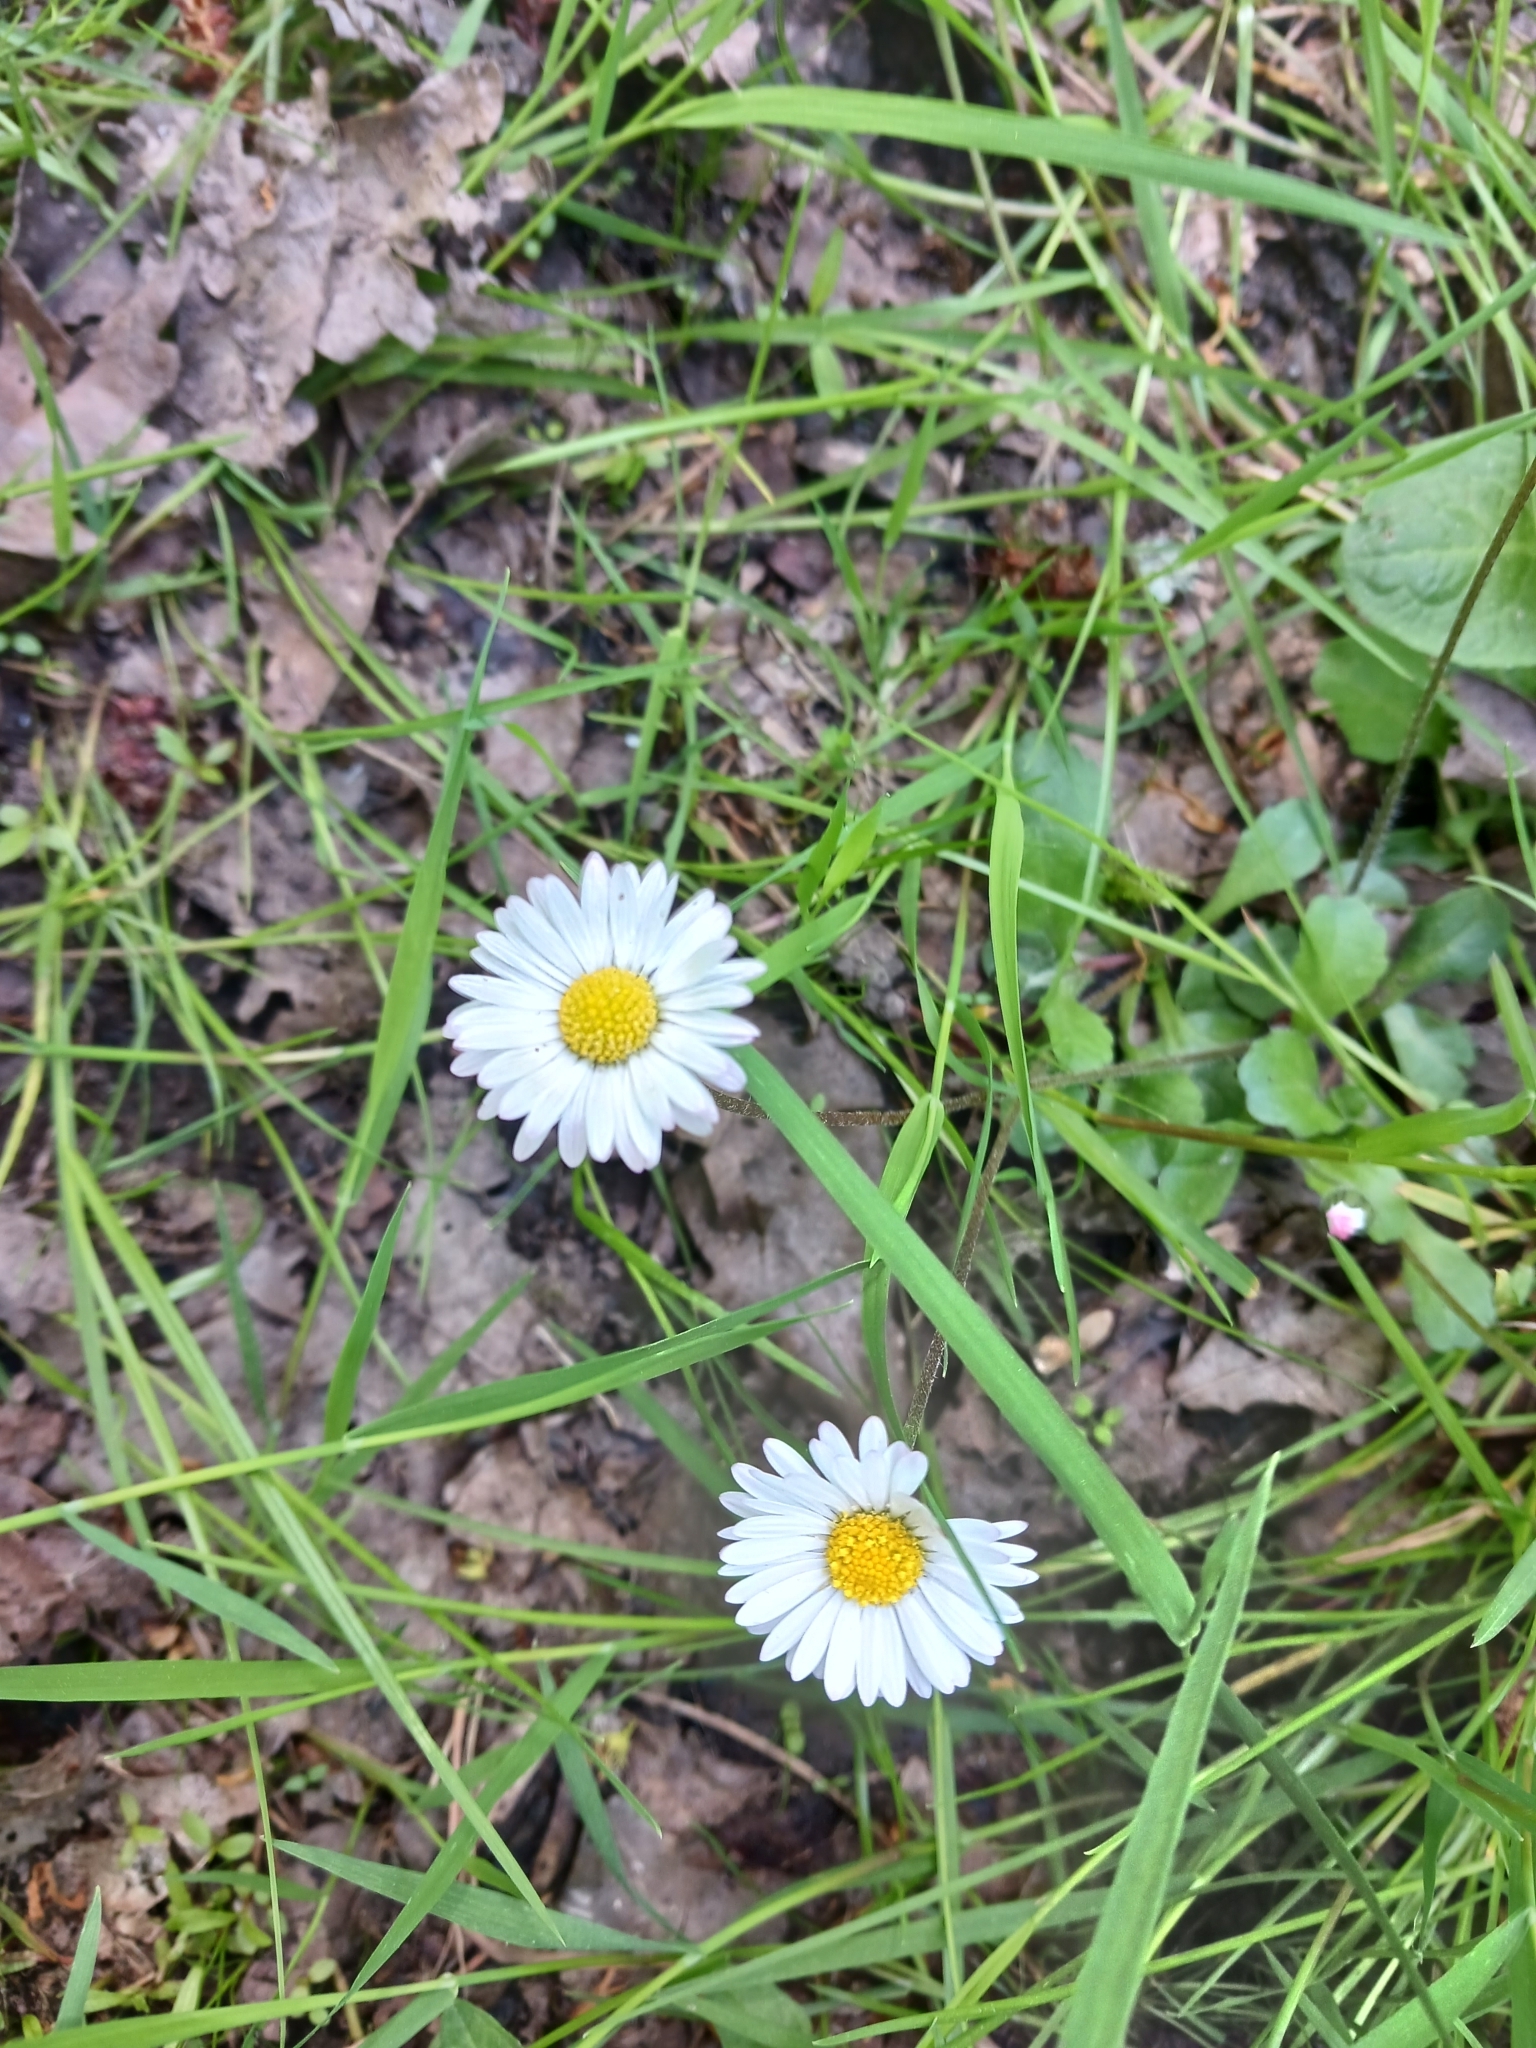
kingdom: Plantae
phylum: Tracheophyta
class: Magnoliopsida
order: Asterales
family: Asteraceae
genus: Bellis
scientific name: Bellis perennis
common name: Lawndaisy
